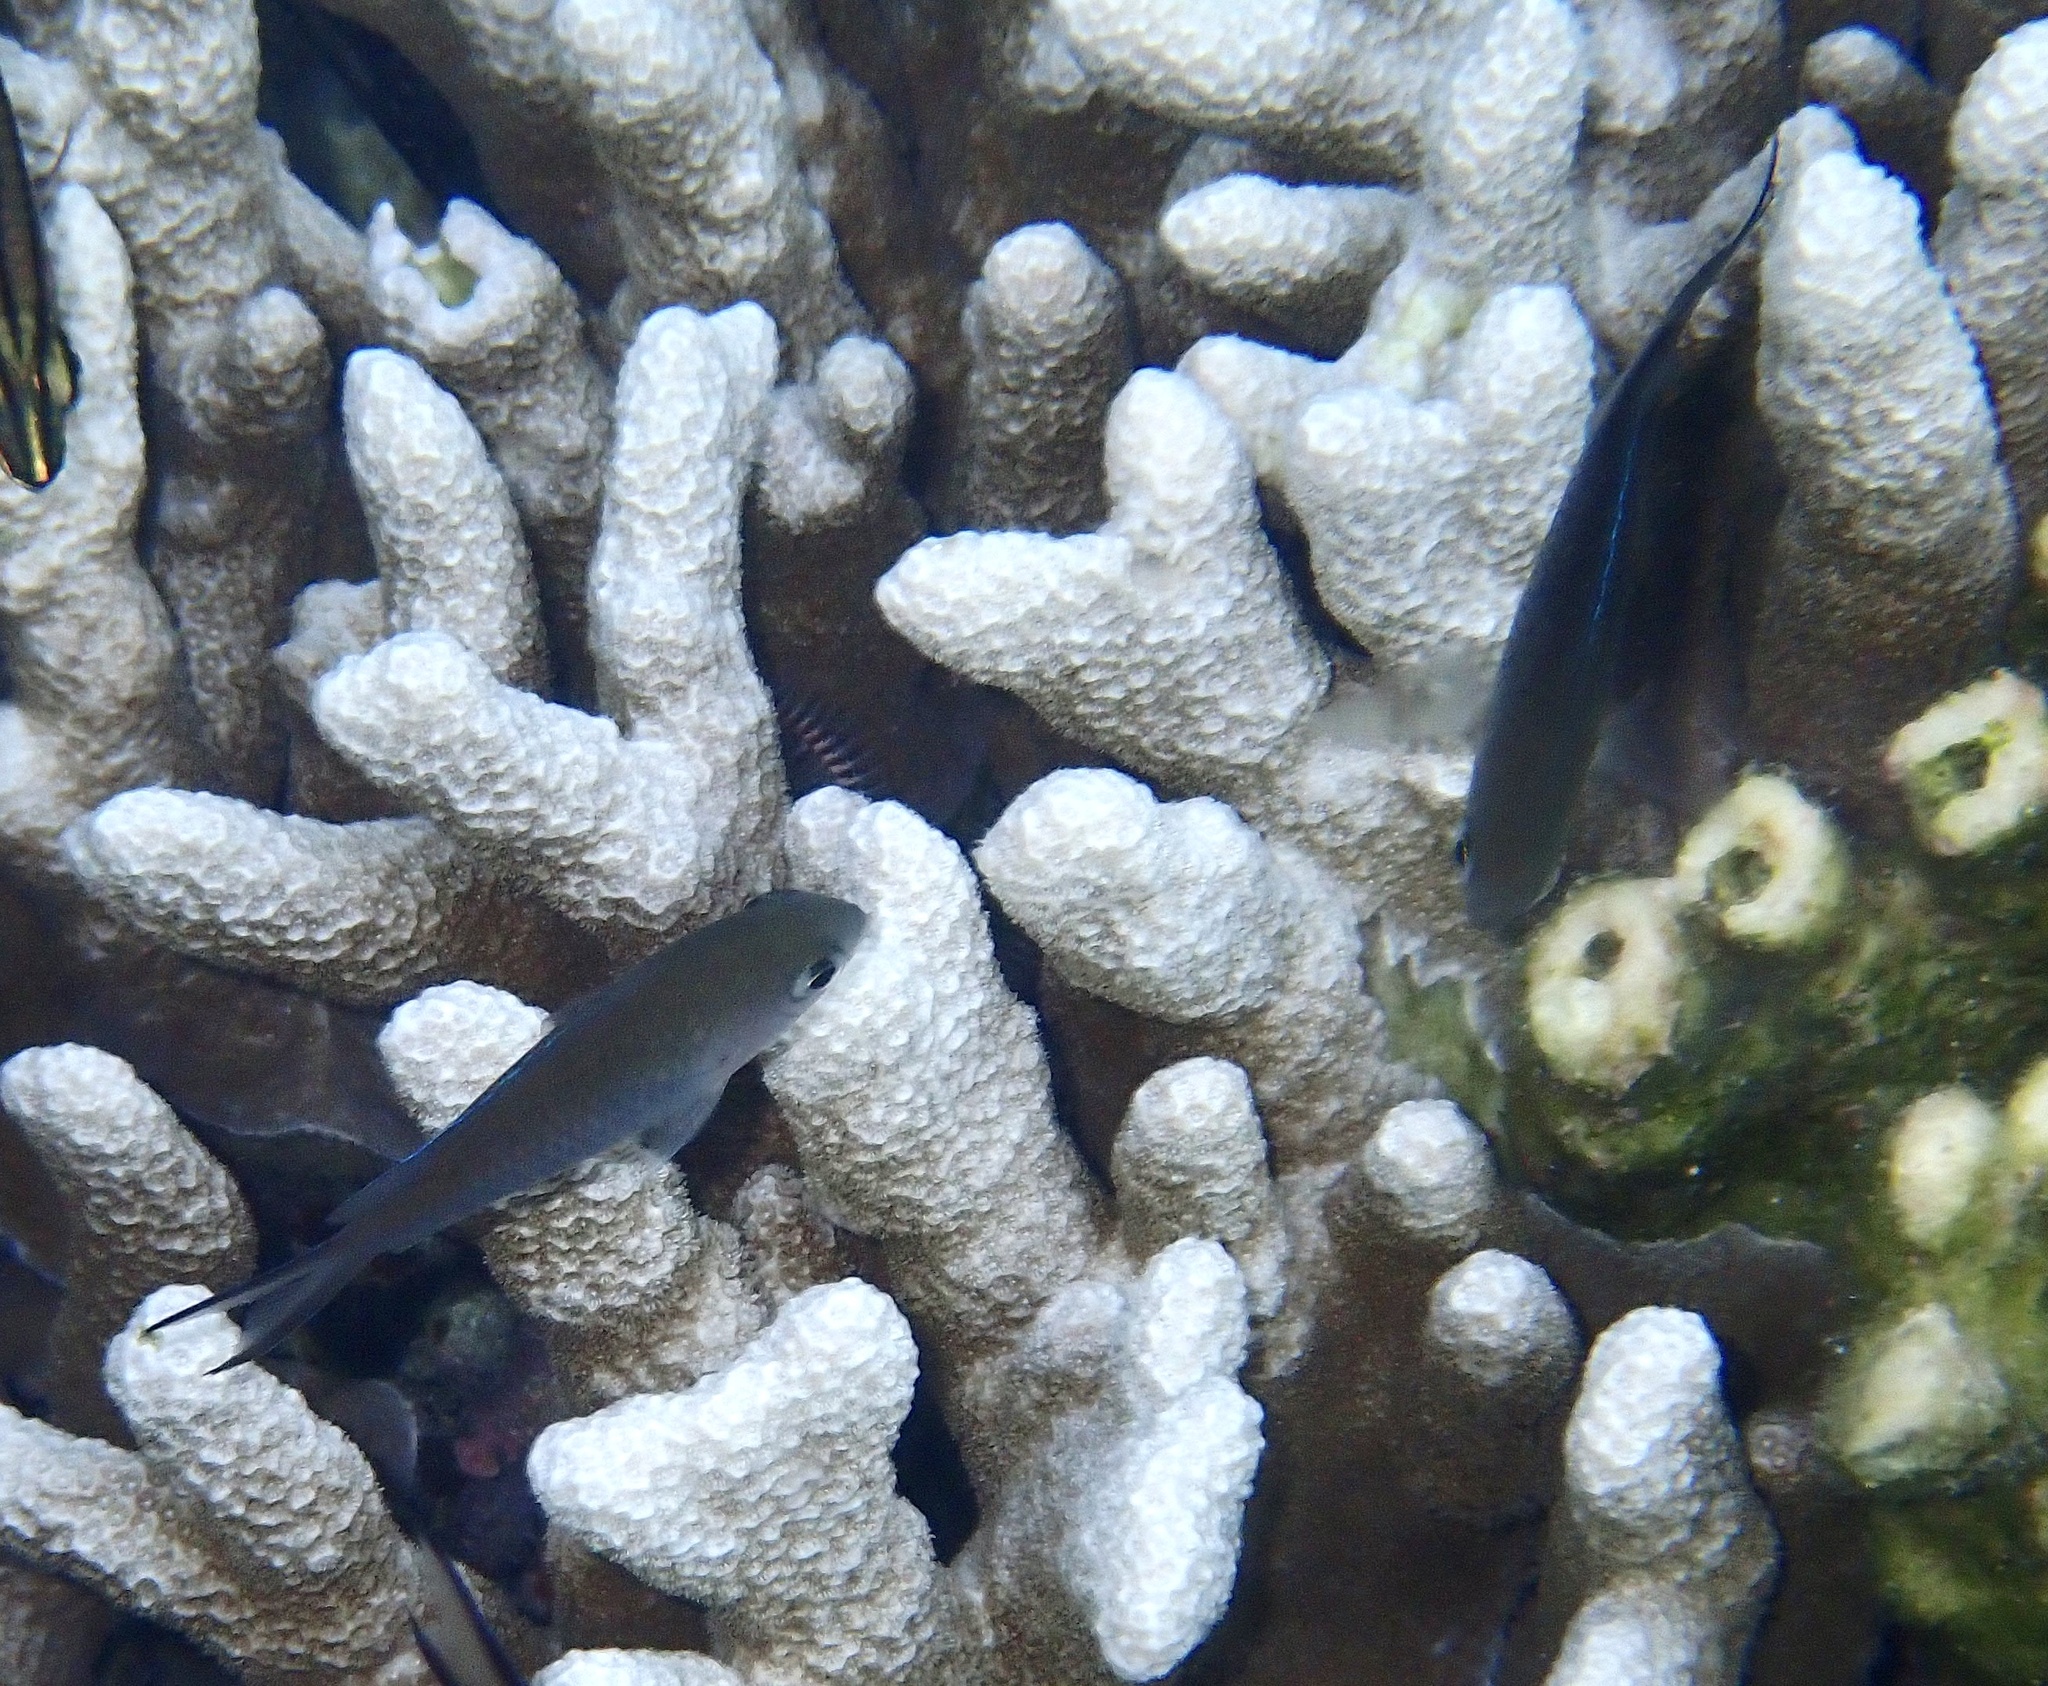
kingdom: Animalia
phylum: Chordata
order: Perciformes
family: Pomacentridae
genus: Chromis
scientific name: Chromis ternatensis
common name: Ternate chromis
